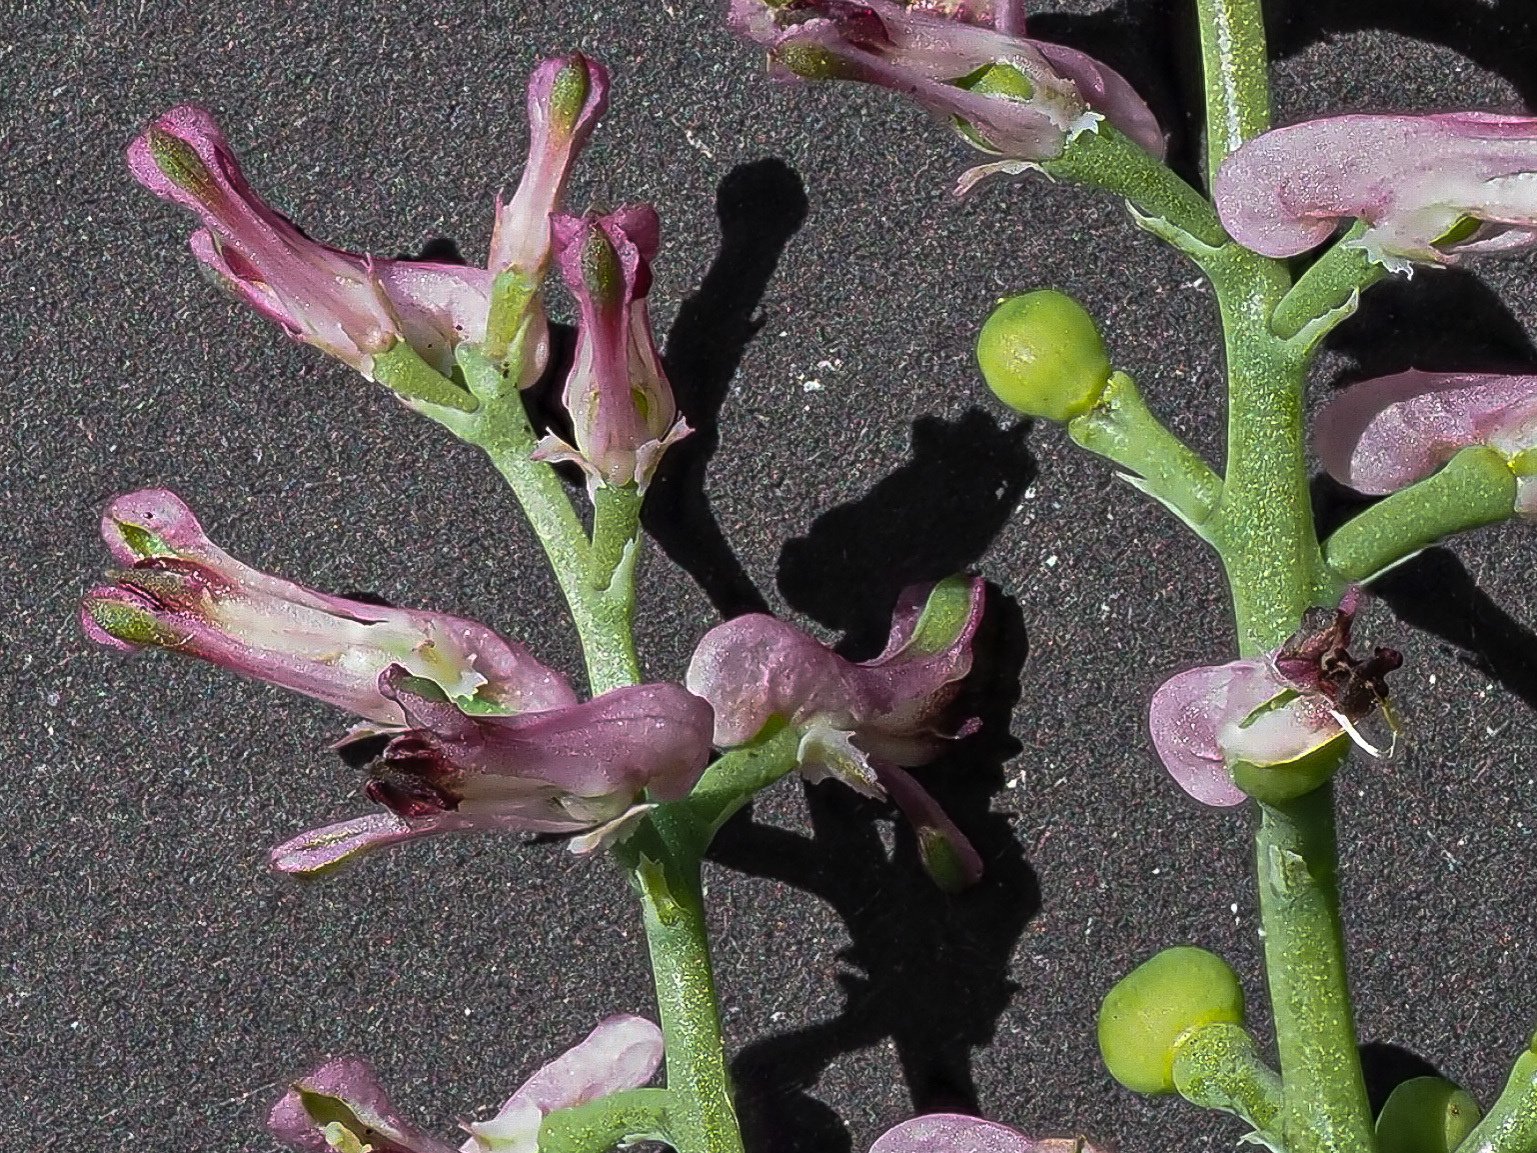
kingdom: Plantae
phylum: Tracheophyta
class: Magnoliopsida
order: Ranunculales
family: Papaveraceae
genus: Fumaria
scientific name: Fumaria officinalis
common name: Common fumitory
